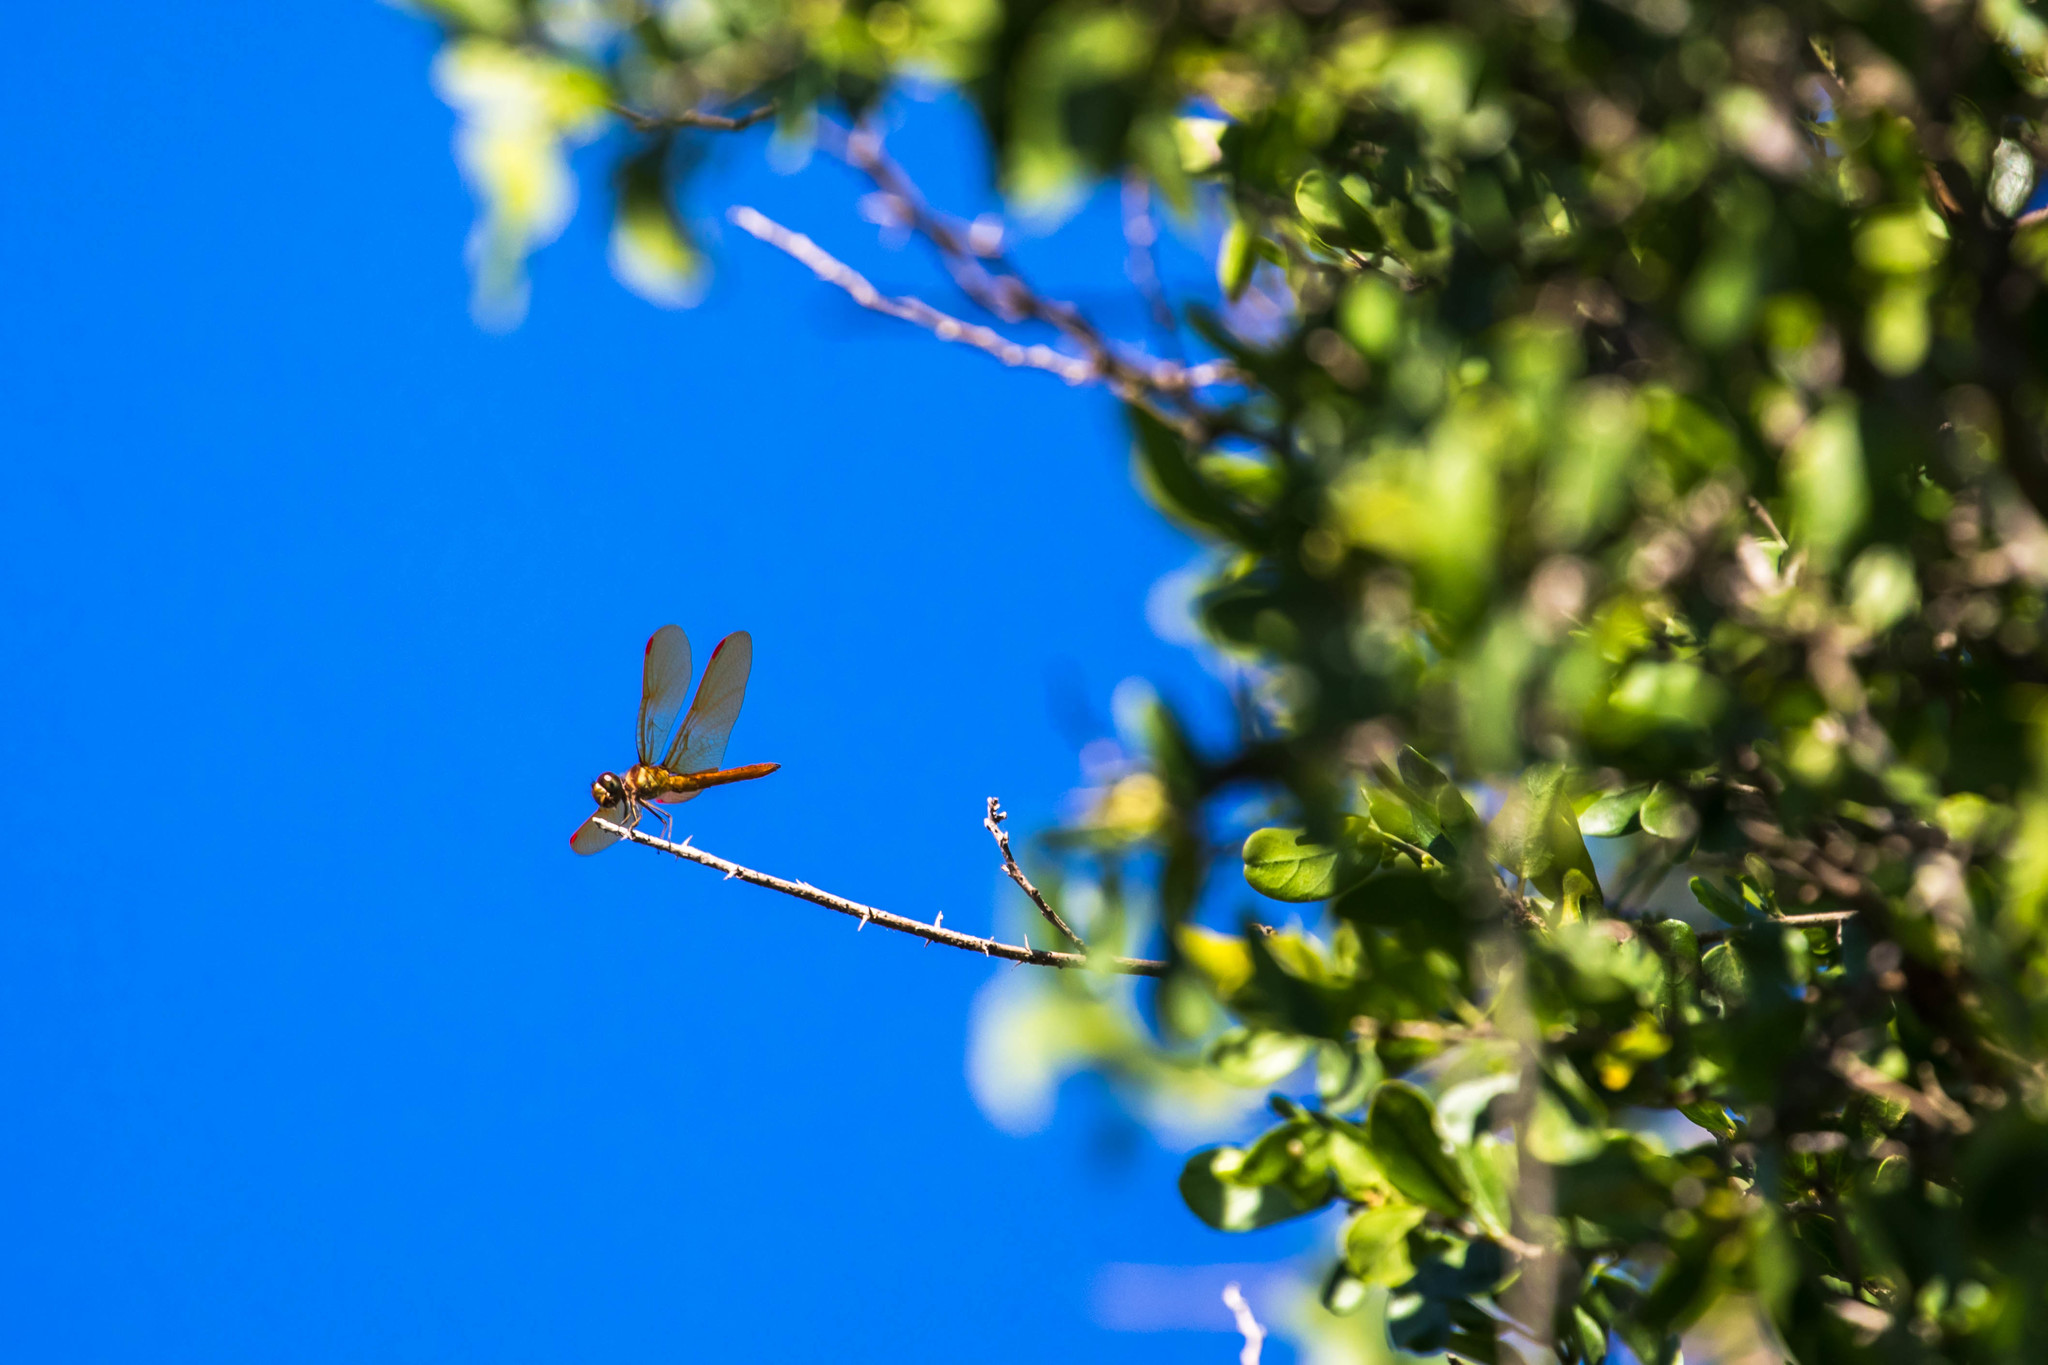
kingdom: Animalia
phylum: Arthropoda
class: Insecta
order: Odonata
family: Libellulidae
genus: Perithemis
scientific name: Perithemis domitia
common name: Slough amberwing
